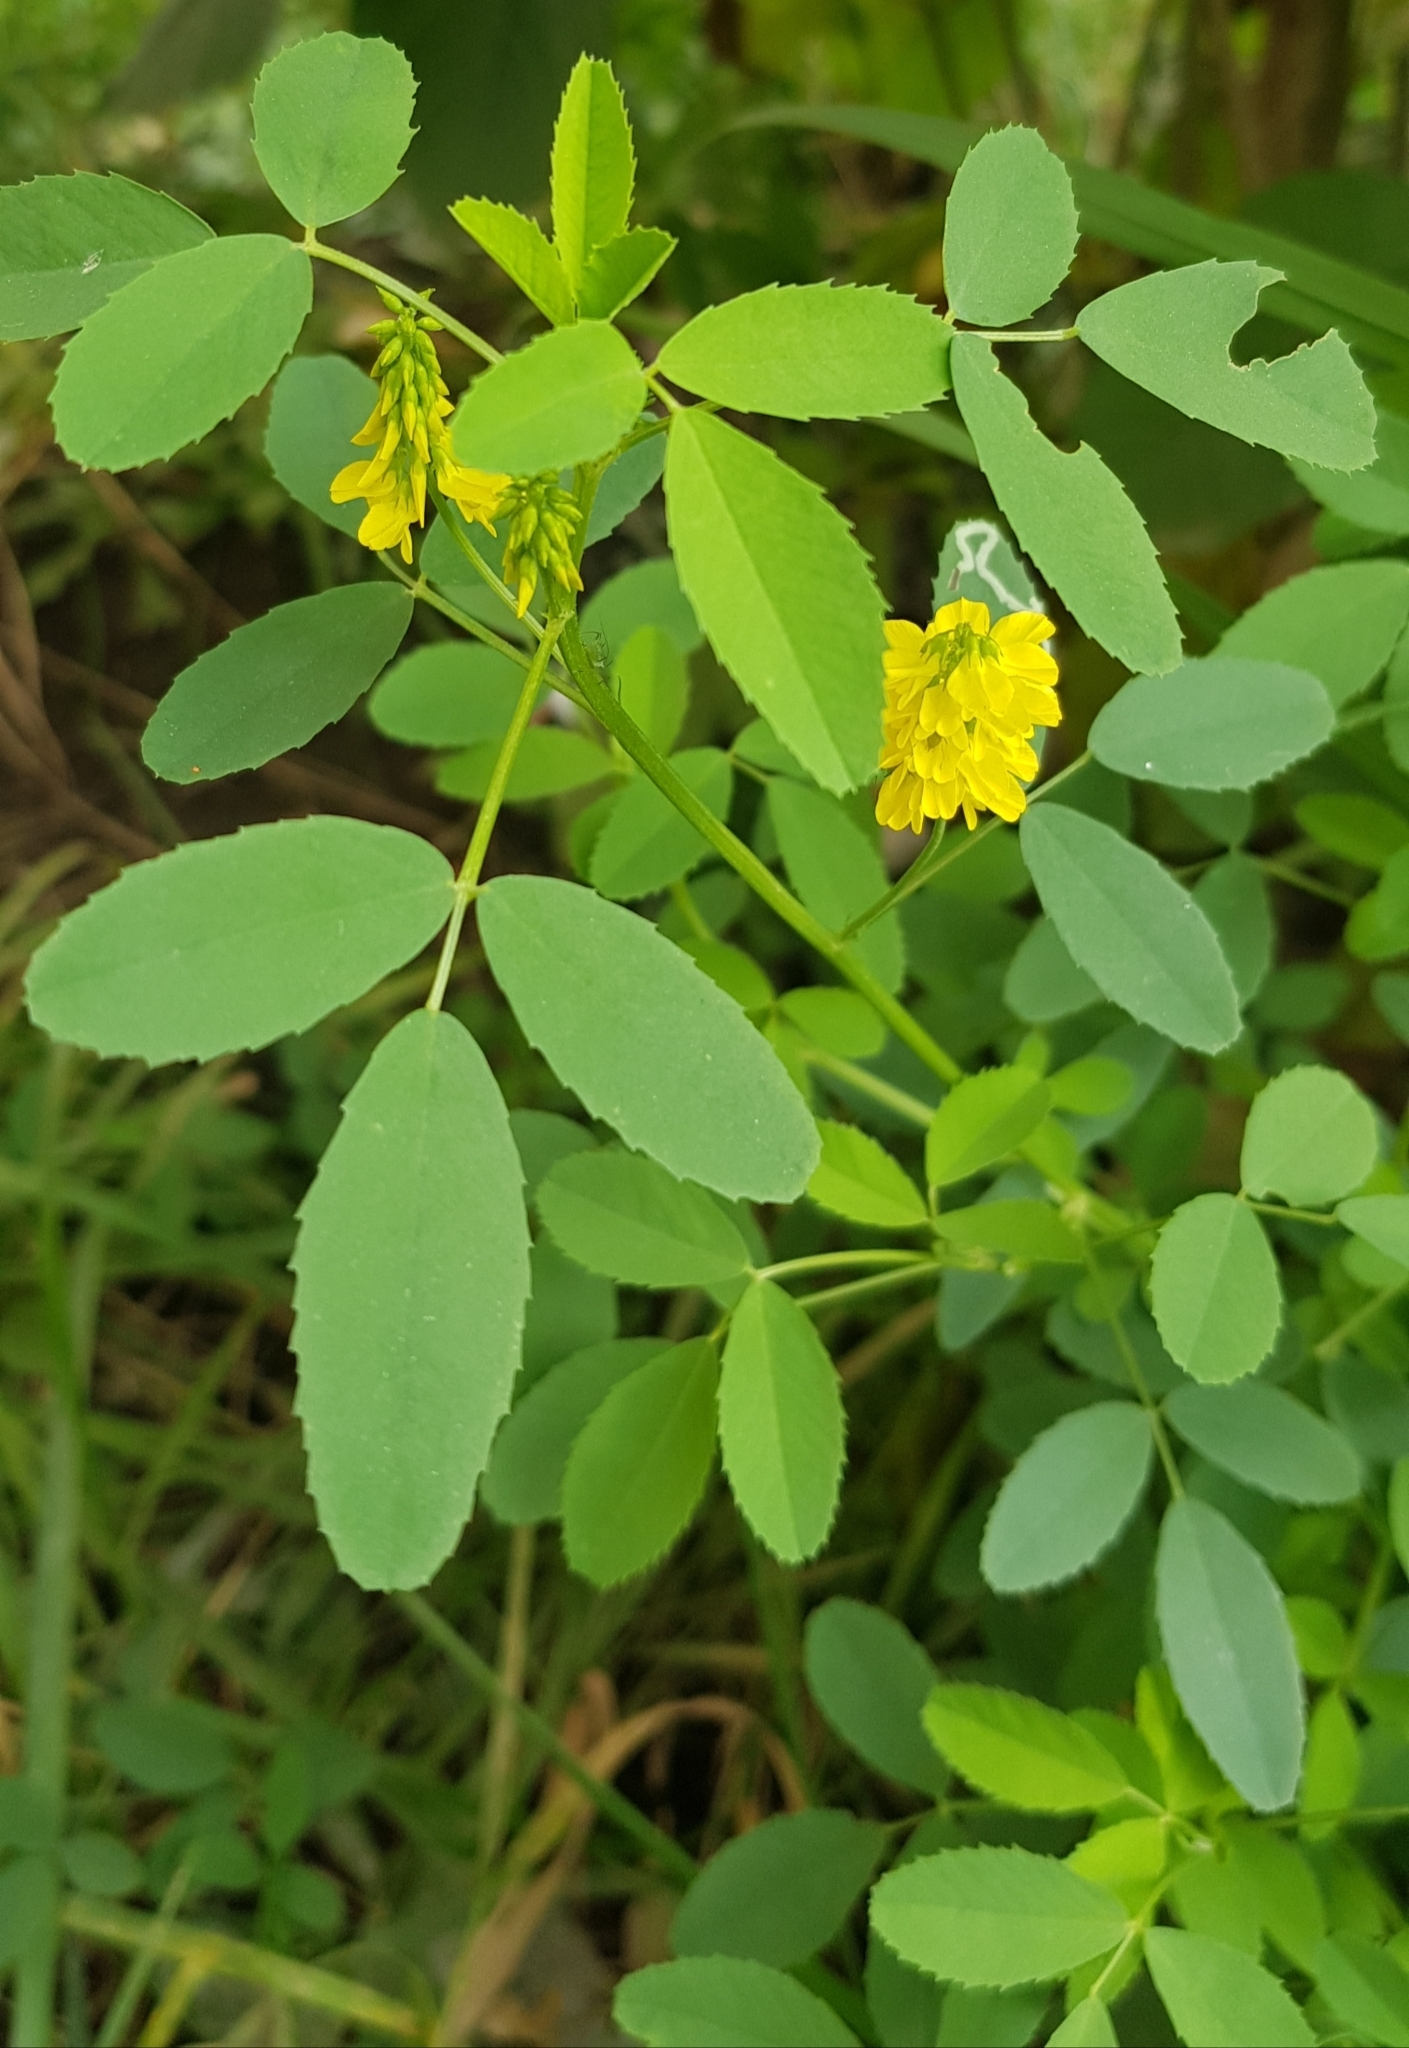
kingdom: Plantae
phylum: Tracheophyta
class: Magnoliopsida
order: Fabales
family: Fabaceae
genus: Melilotus
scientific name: Melilotus officinalis
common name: Sweetclover
